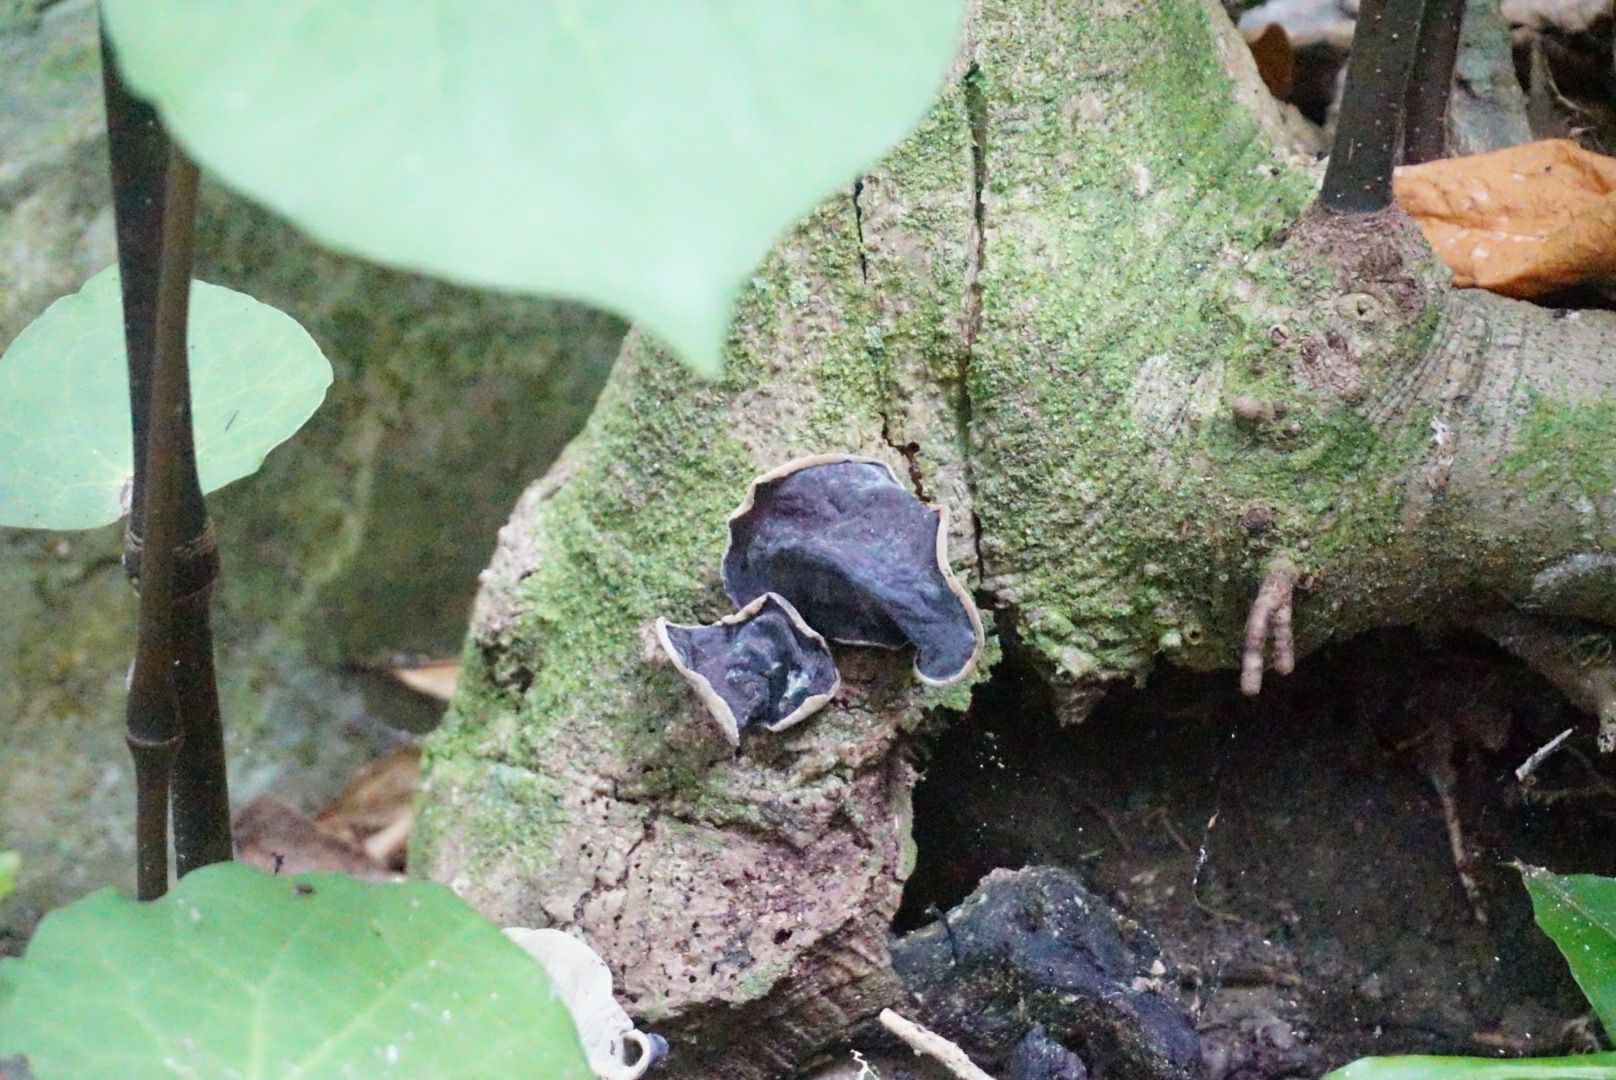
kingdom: Fungi
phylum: Basidiomycota
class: Agaricomycetes
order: Auriculariales
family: Auriculariaceae
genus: Auricularia
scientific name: Auricularia cornea
